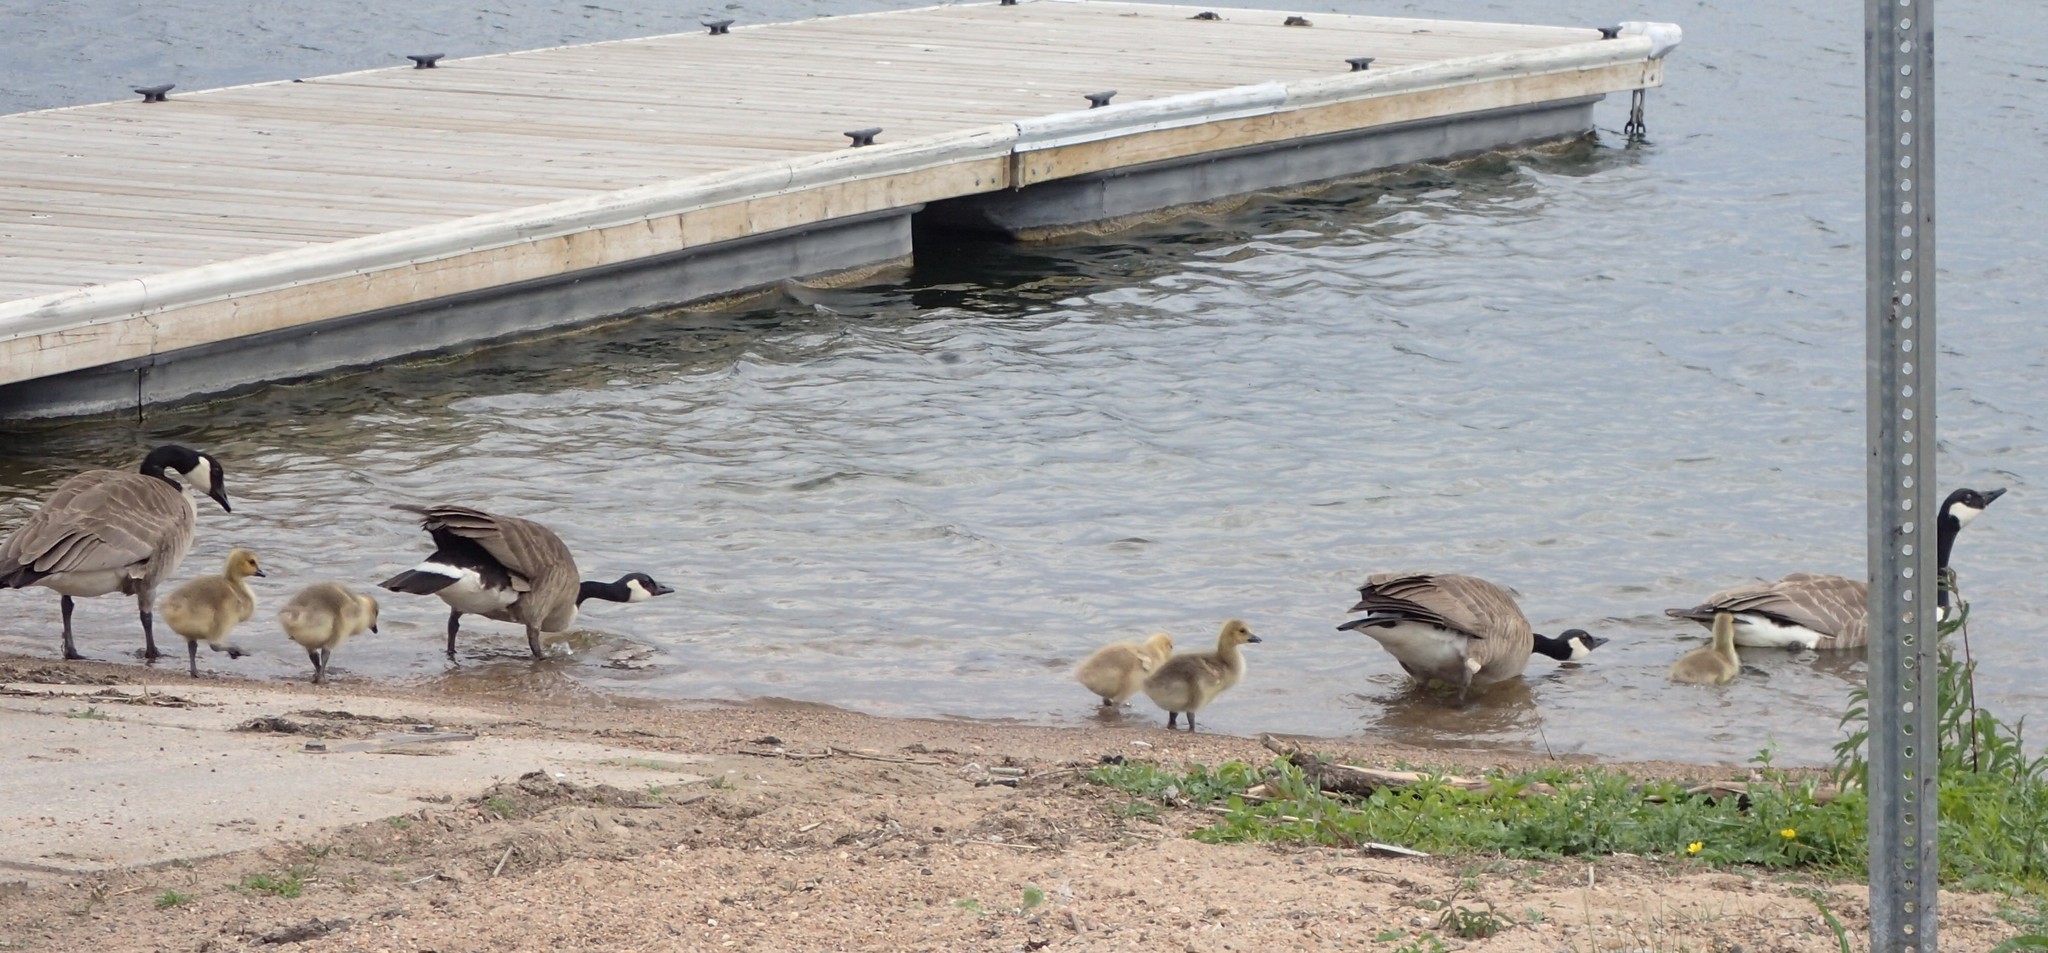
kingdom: Animalia
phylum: Chordata
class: Aves
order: Anseriformes
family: Anatidae
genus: Branta
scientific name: Branta canadensis
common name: Canada goose
